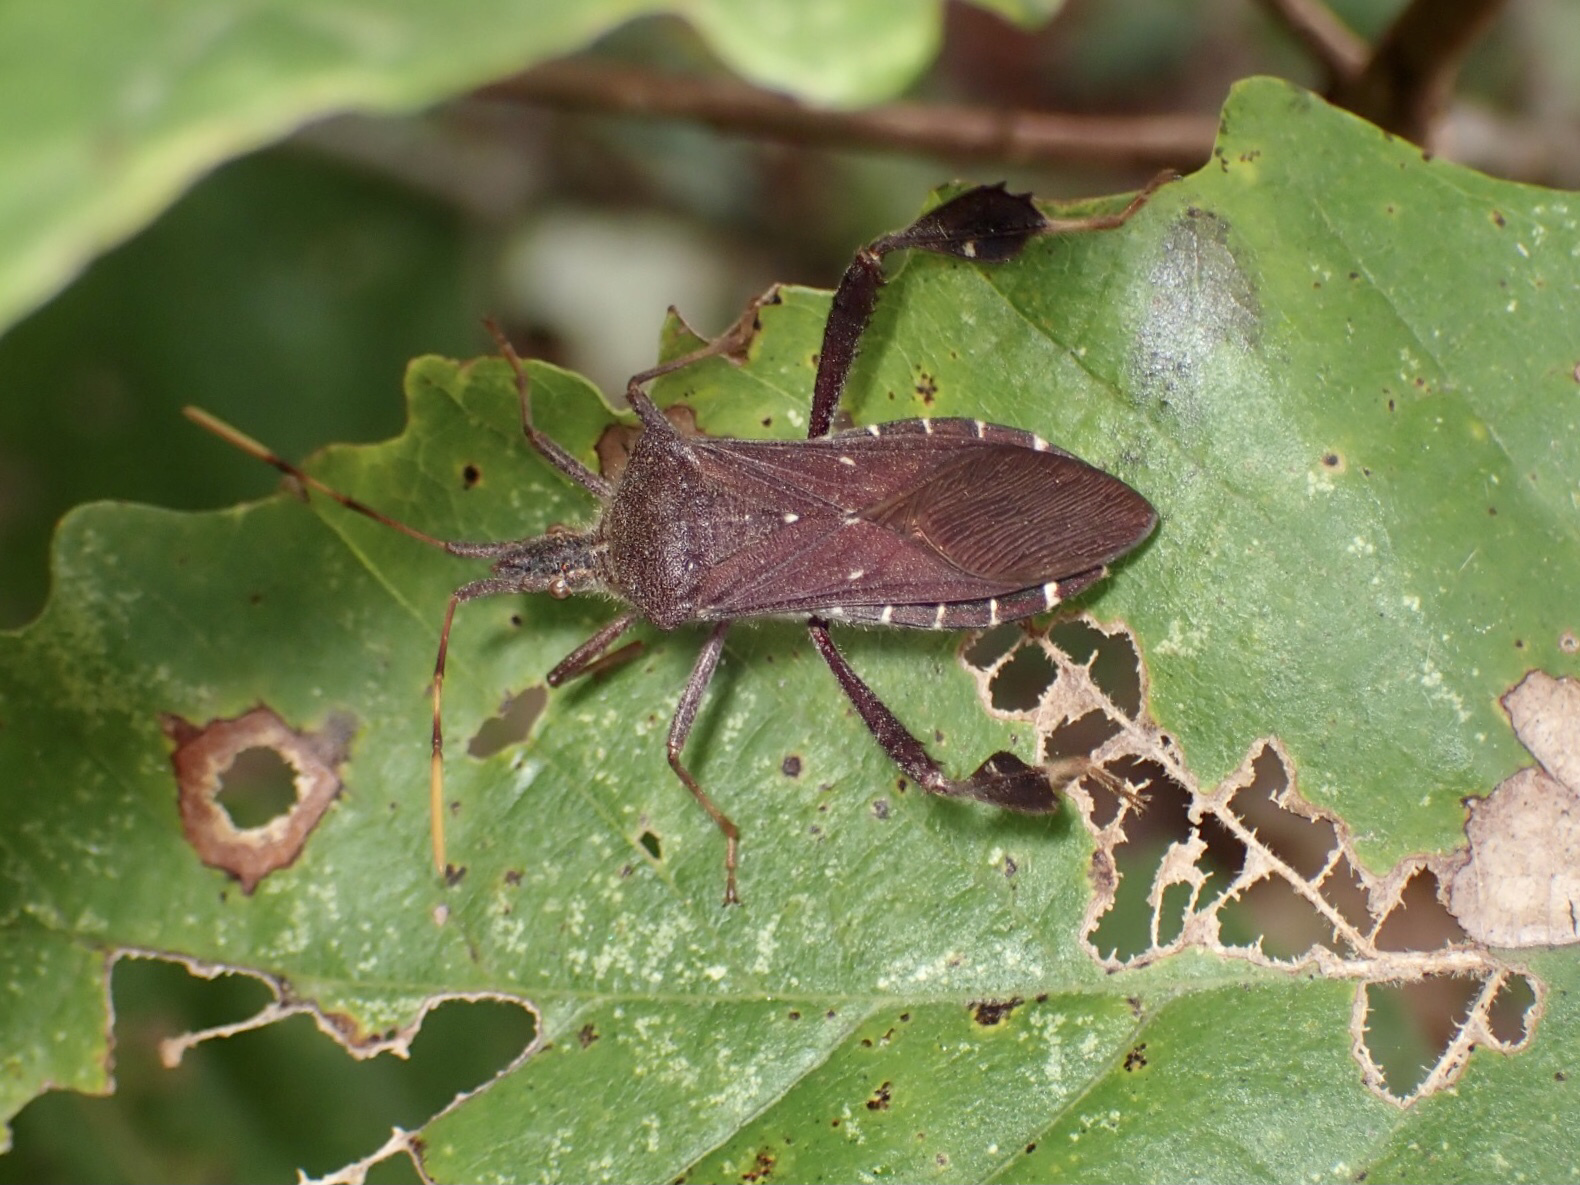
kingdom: Animalia
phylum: Arthropoda
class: Insecta
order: Hemiptera
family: Coreidae
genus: Leptoglossus
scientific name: Leptoglossus oppositus
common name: Northern leaf-footed bug
